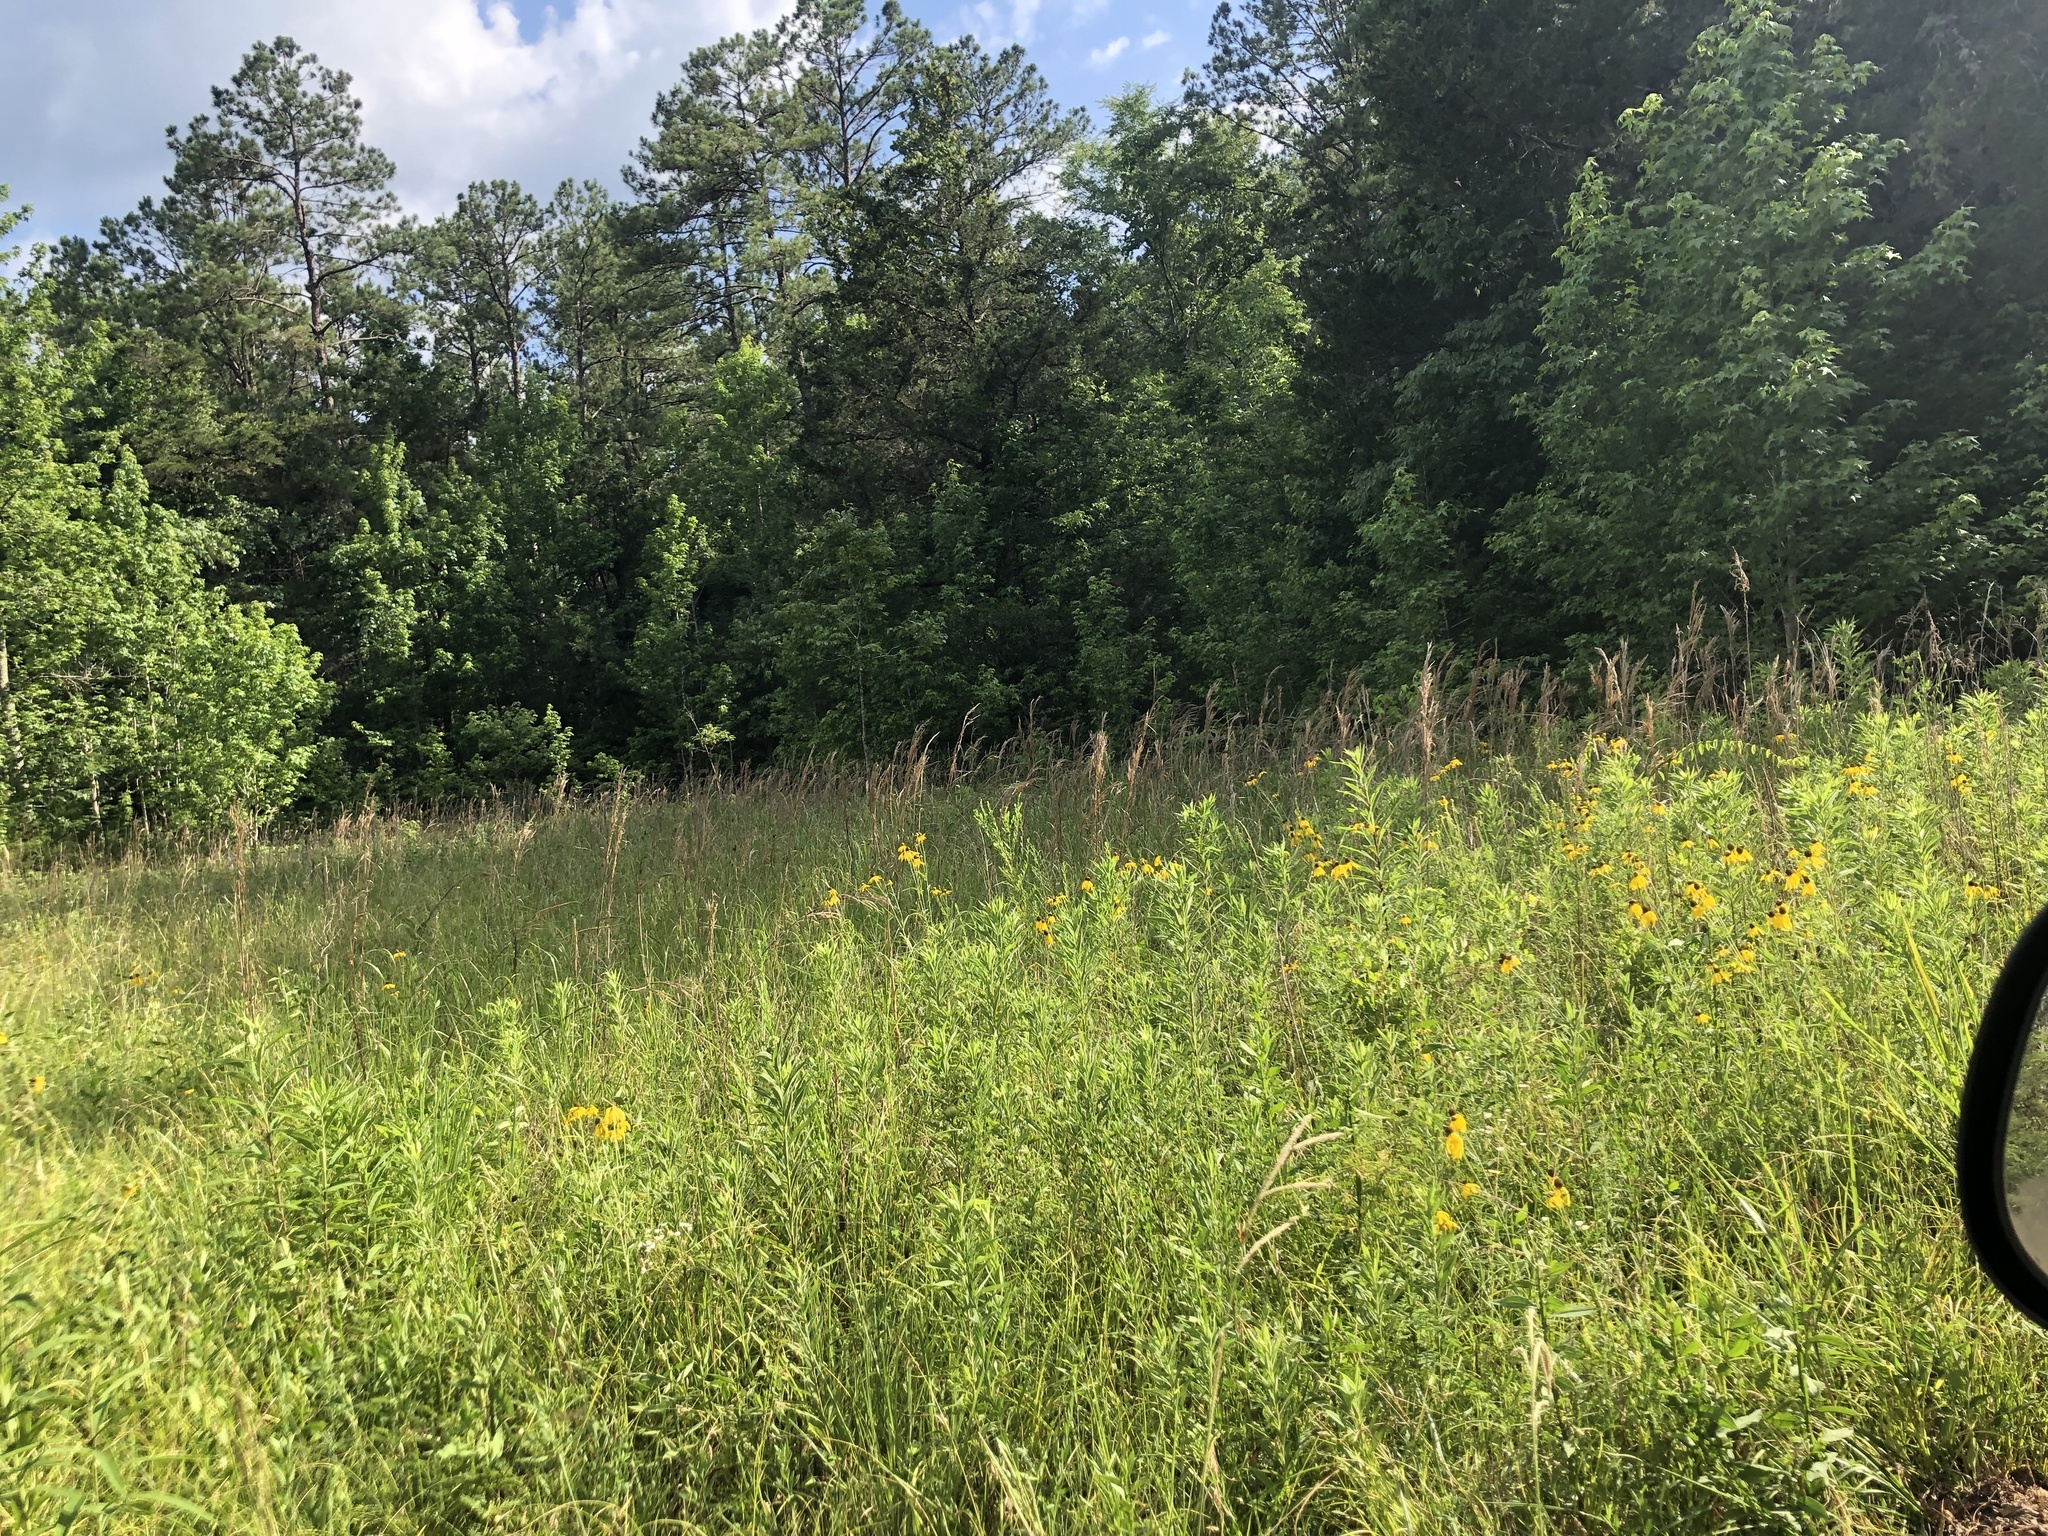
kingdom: Plantae
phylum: Tracheophyta
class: Liliopsida
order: Poales
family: Poaceae
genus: Andropogon
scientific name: Andropogon tenuispatheus
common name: Bushy bluestem
